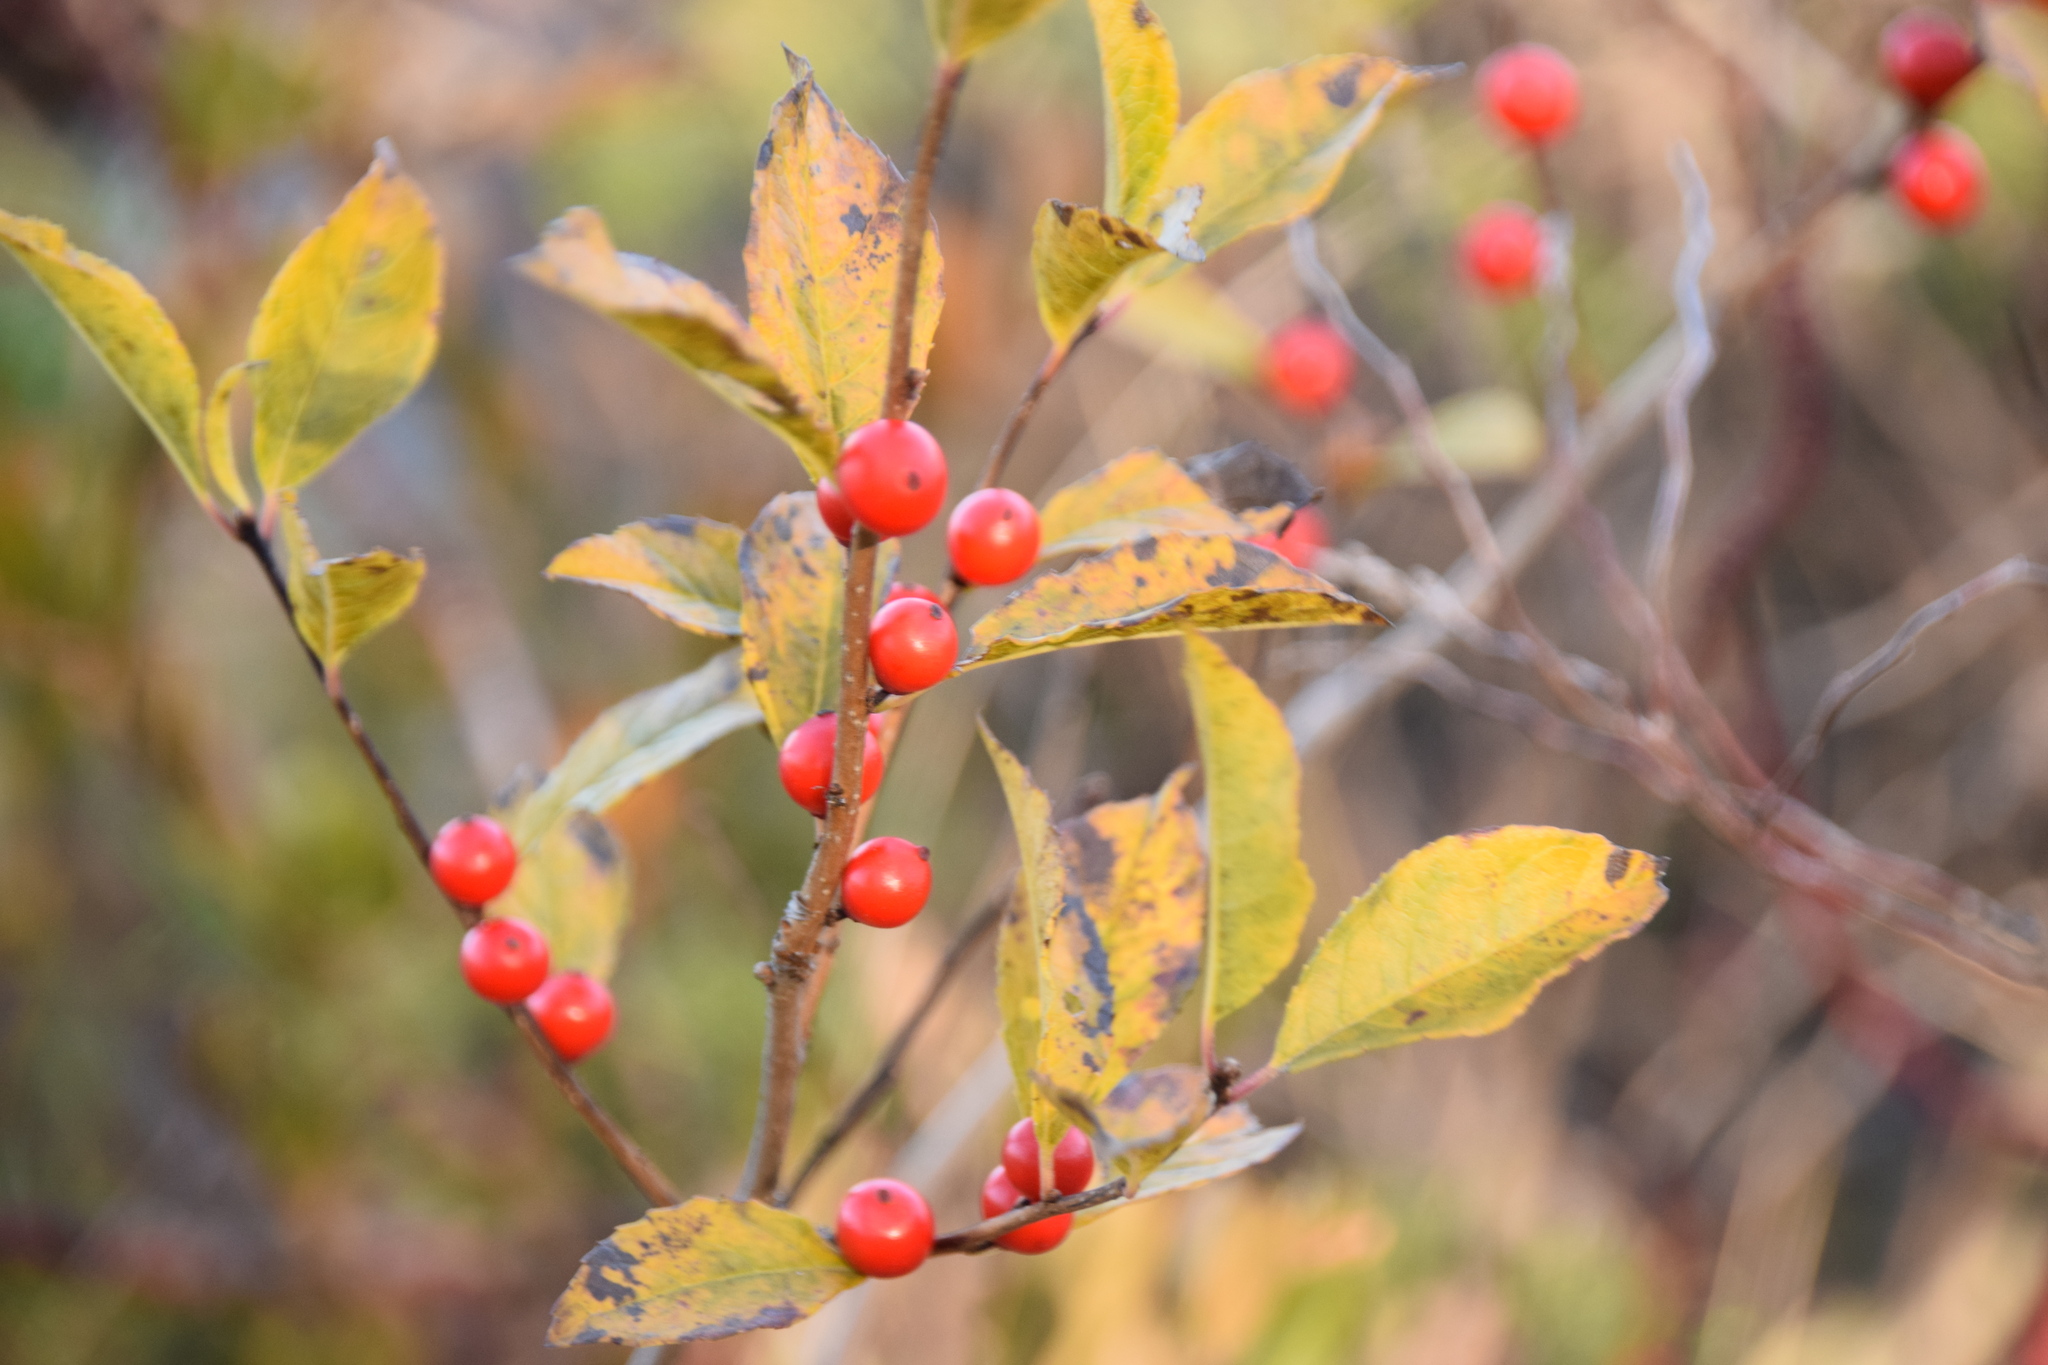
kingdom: Plantae
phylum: Tracheophyta
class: Magnoliopsida
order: Aquifoliales
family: Aquifoliaceae
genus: Ilex
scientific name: Ilex verticillata
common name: Virginia winterberry
